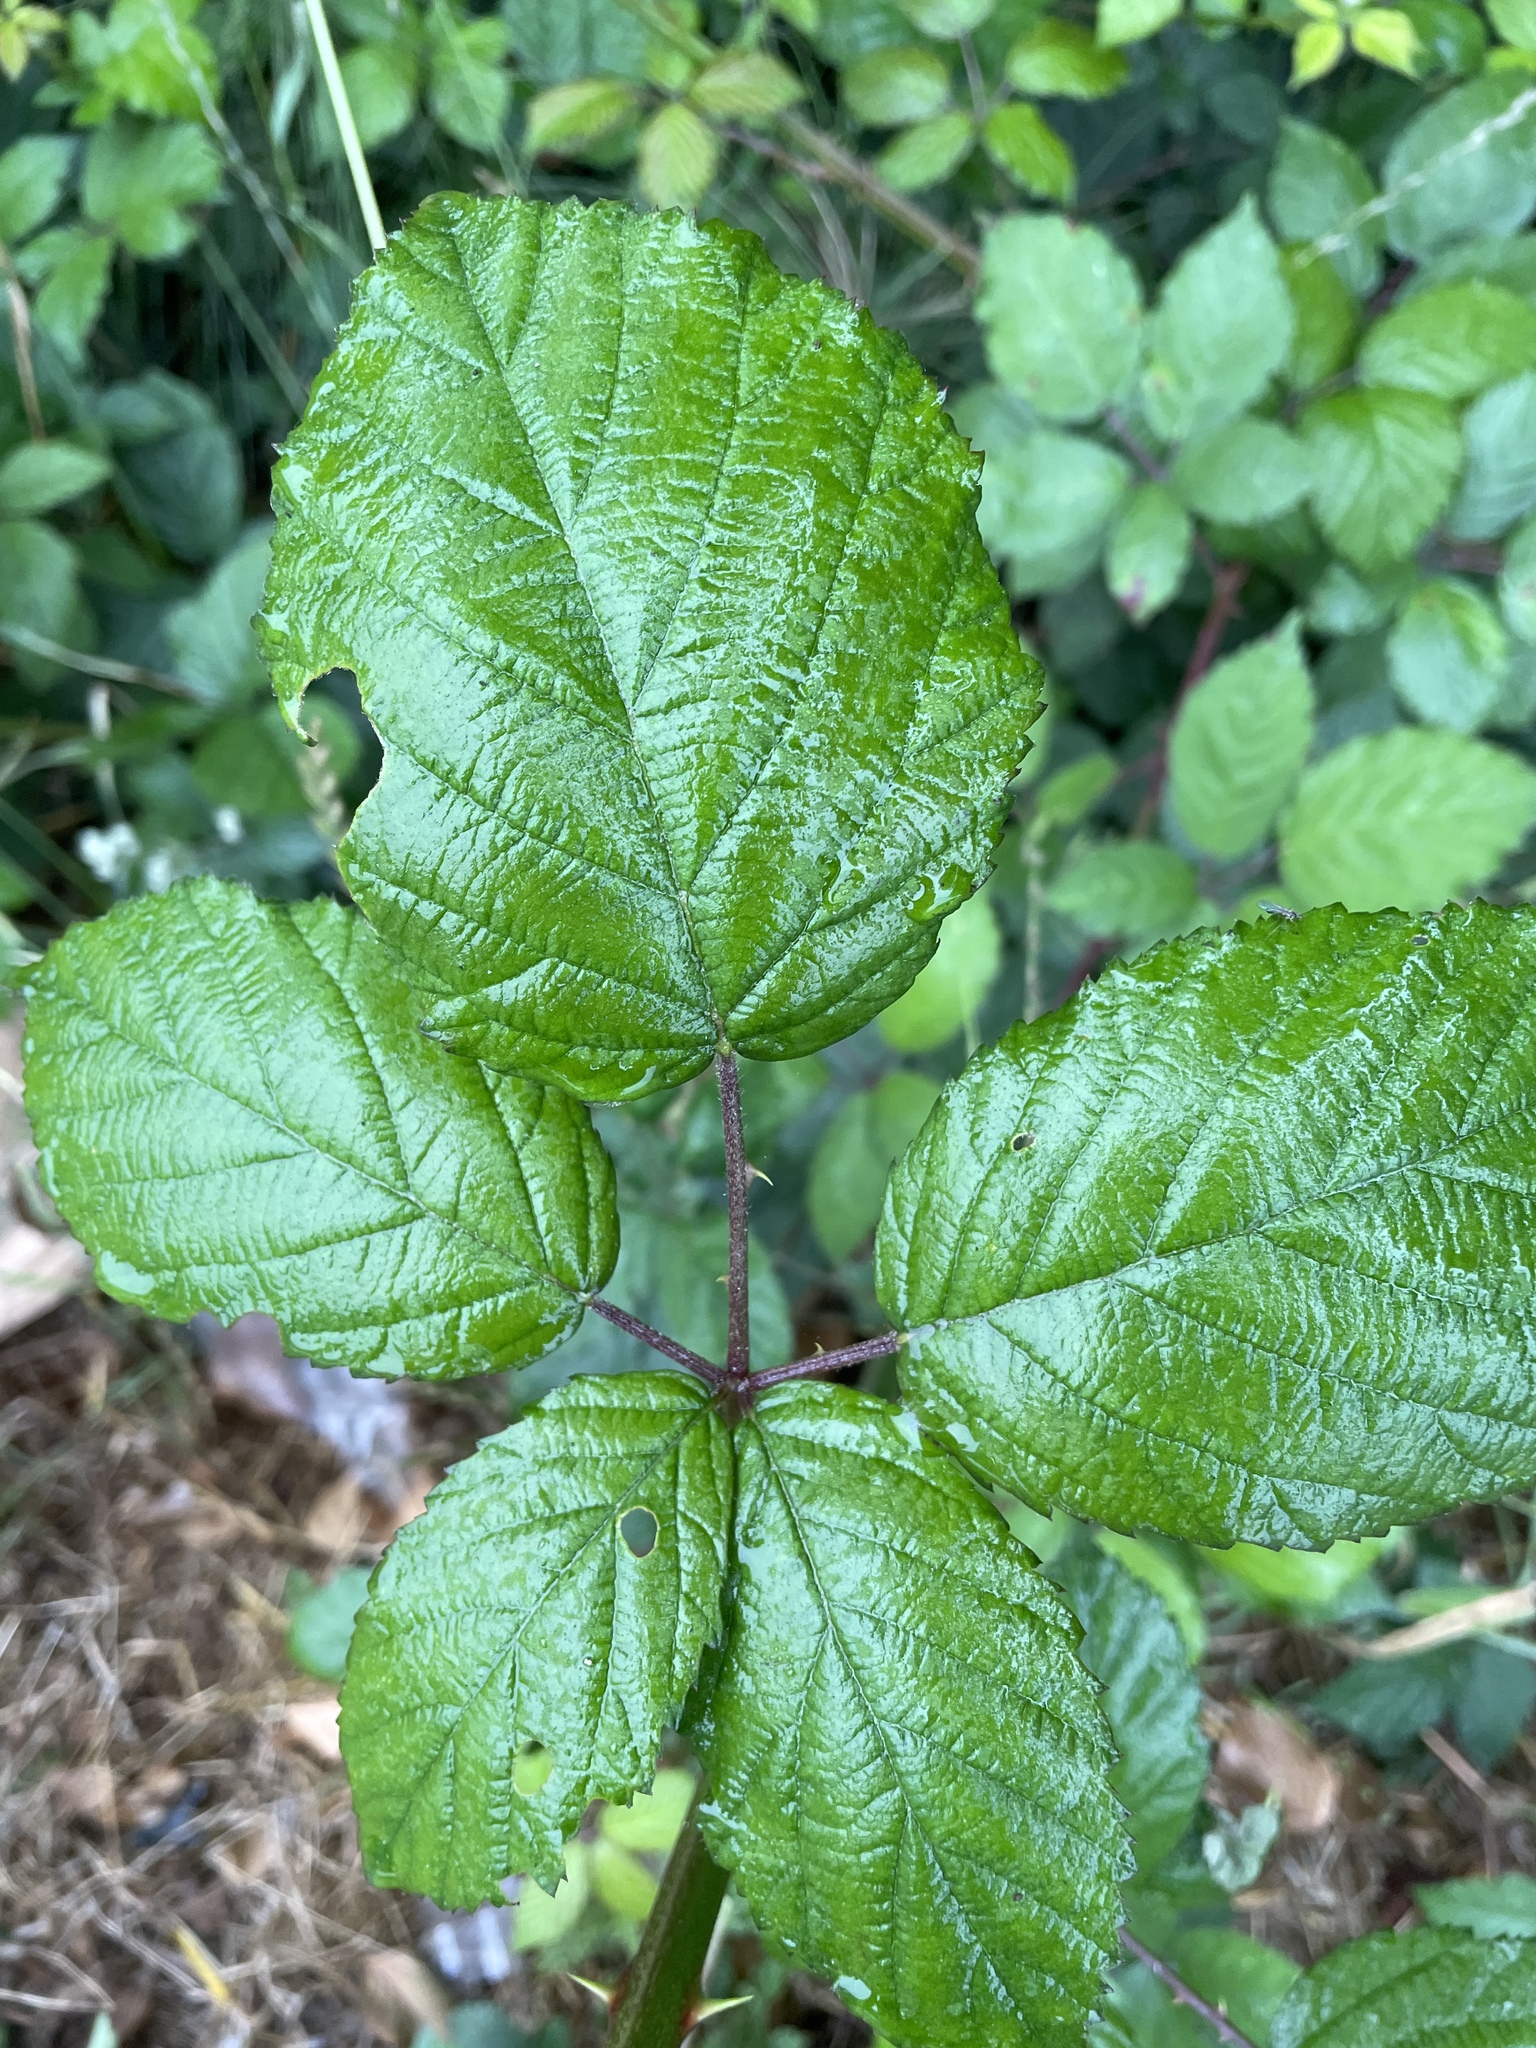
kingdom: Plantae
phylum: Tracheophyta
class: Magnoliopsida
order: Rosales
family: Rosaceae
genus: Rubus
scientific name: Rubus armeniacus
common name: Himalayan blackberry
